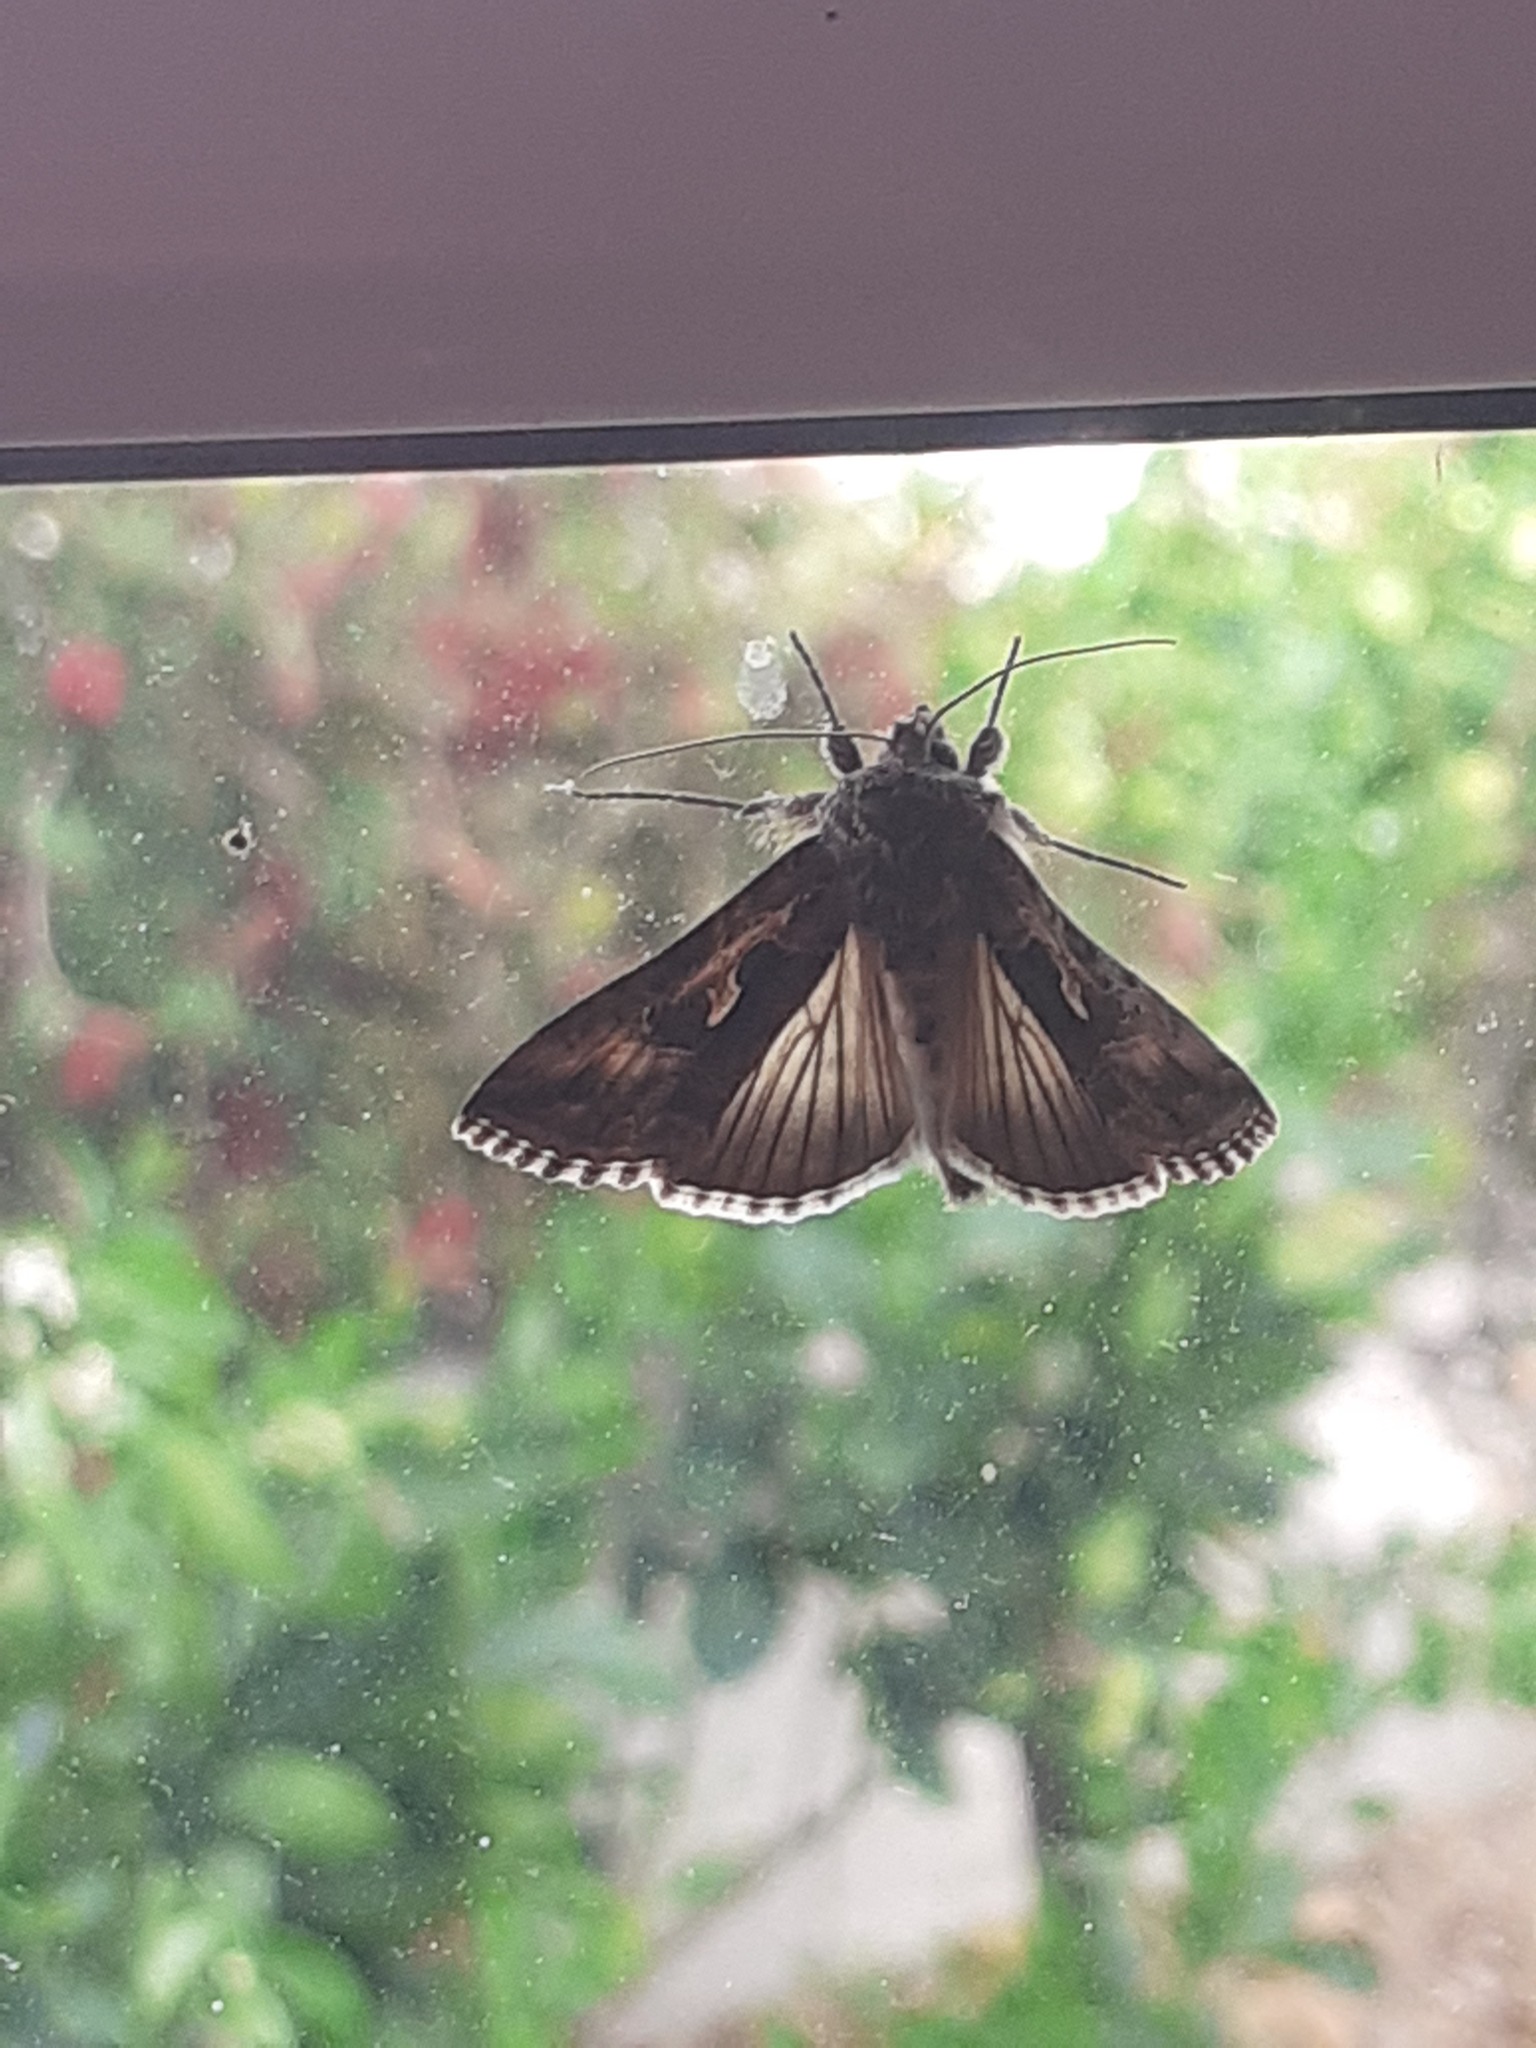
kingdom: Animalia
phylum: Arthropoda
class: Insecta
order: Lepidoptera
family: Noctuidae
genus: Cornutiplusia
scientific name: Cornutiplusia circumflexa
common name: Yorkshire y
